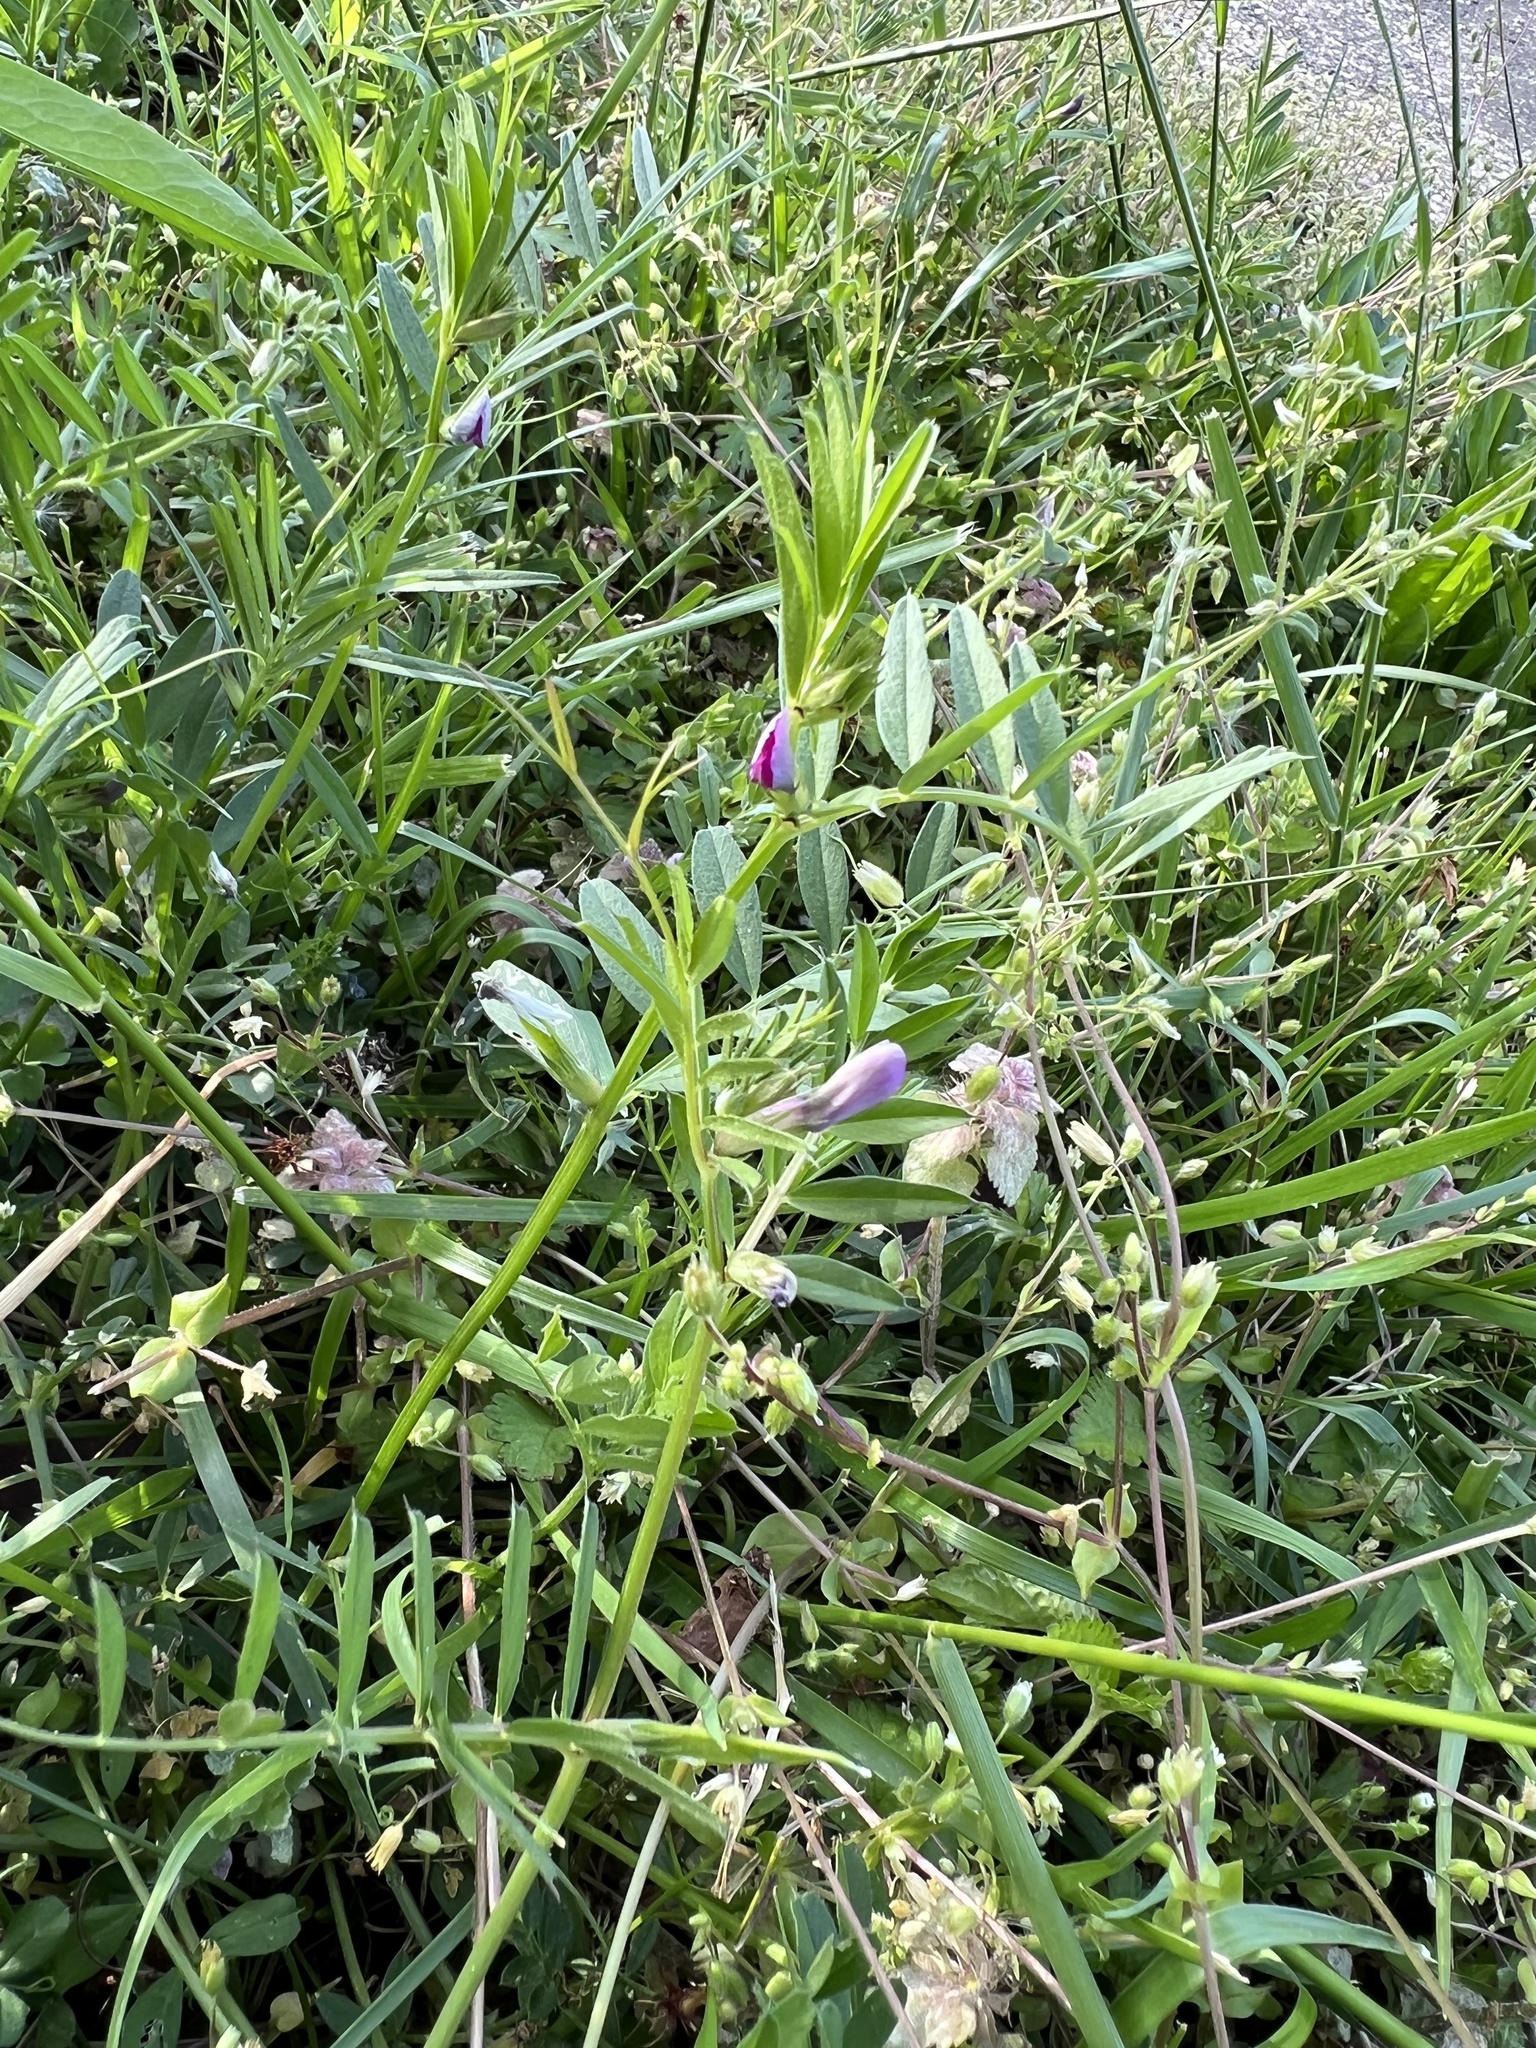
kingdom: Plantae
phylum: Tracheophyta
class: Magnoliopsida
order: Fabales
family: Fabaceae
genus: Vicia
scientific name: Vicia sativa
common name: Garden vetch
